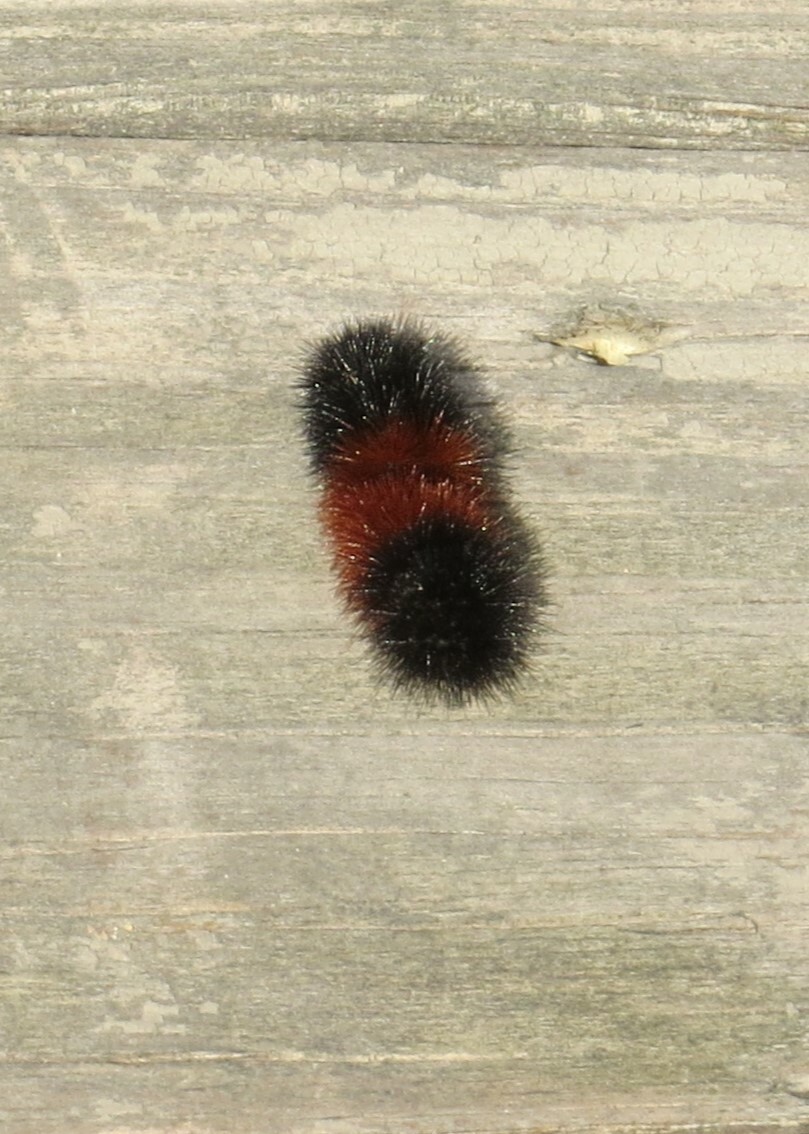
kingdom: Animalia
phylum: Arthropoda
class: Insecta
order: Lepidoptera
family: Erebidae
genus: Pyrrharctia
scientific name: Pyrrharctia isabella
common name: Isabella tiger moth
